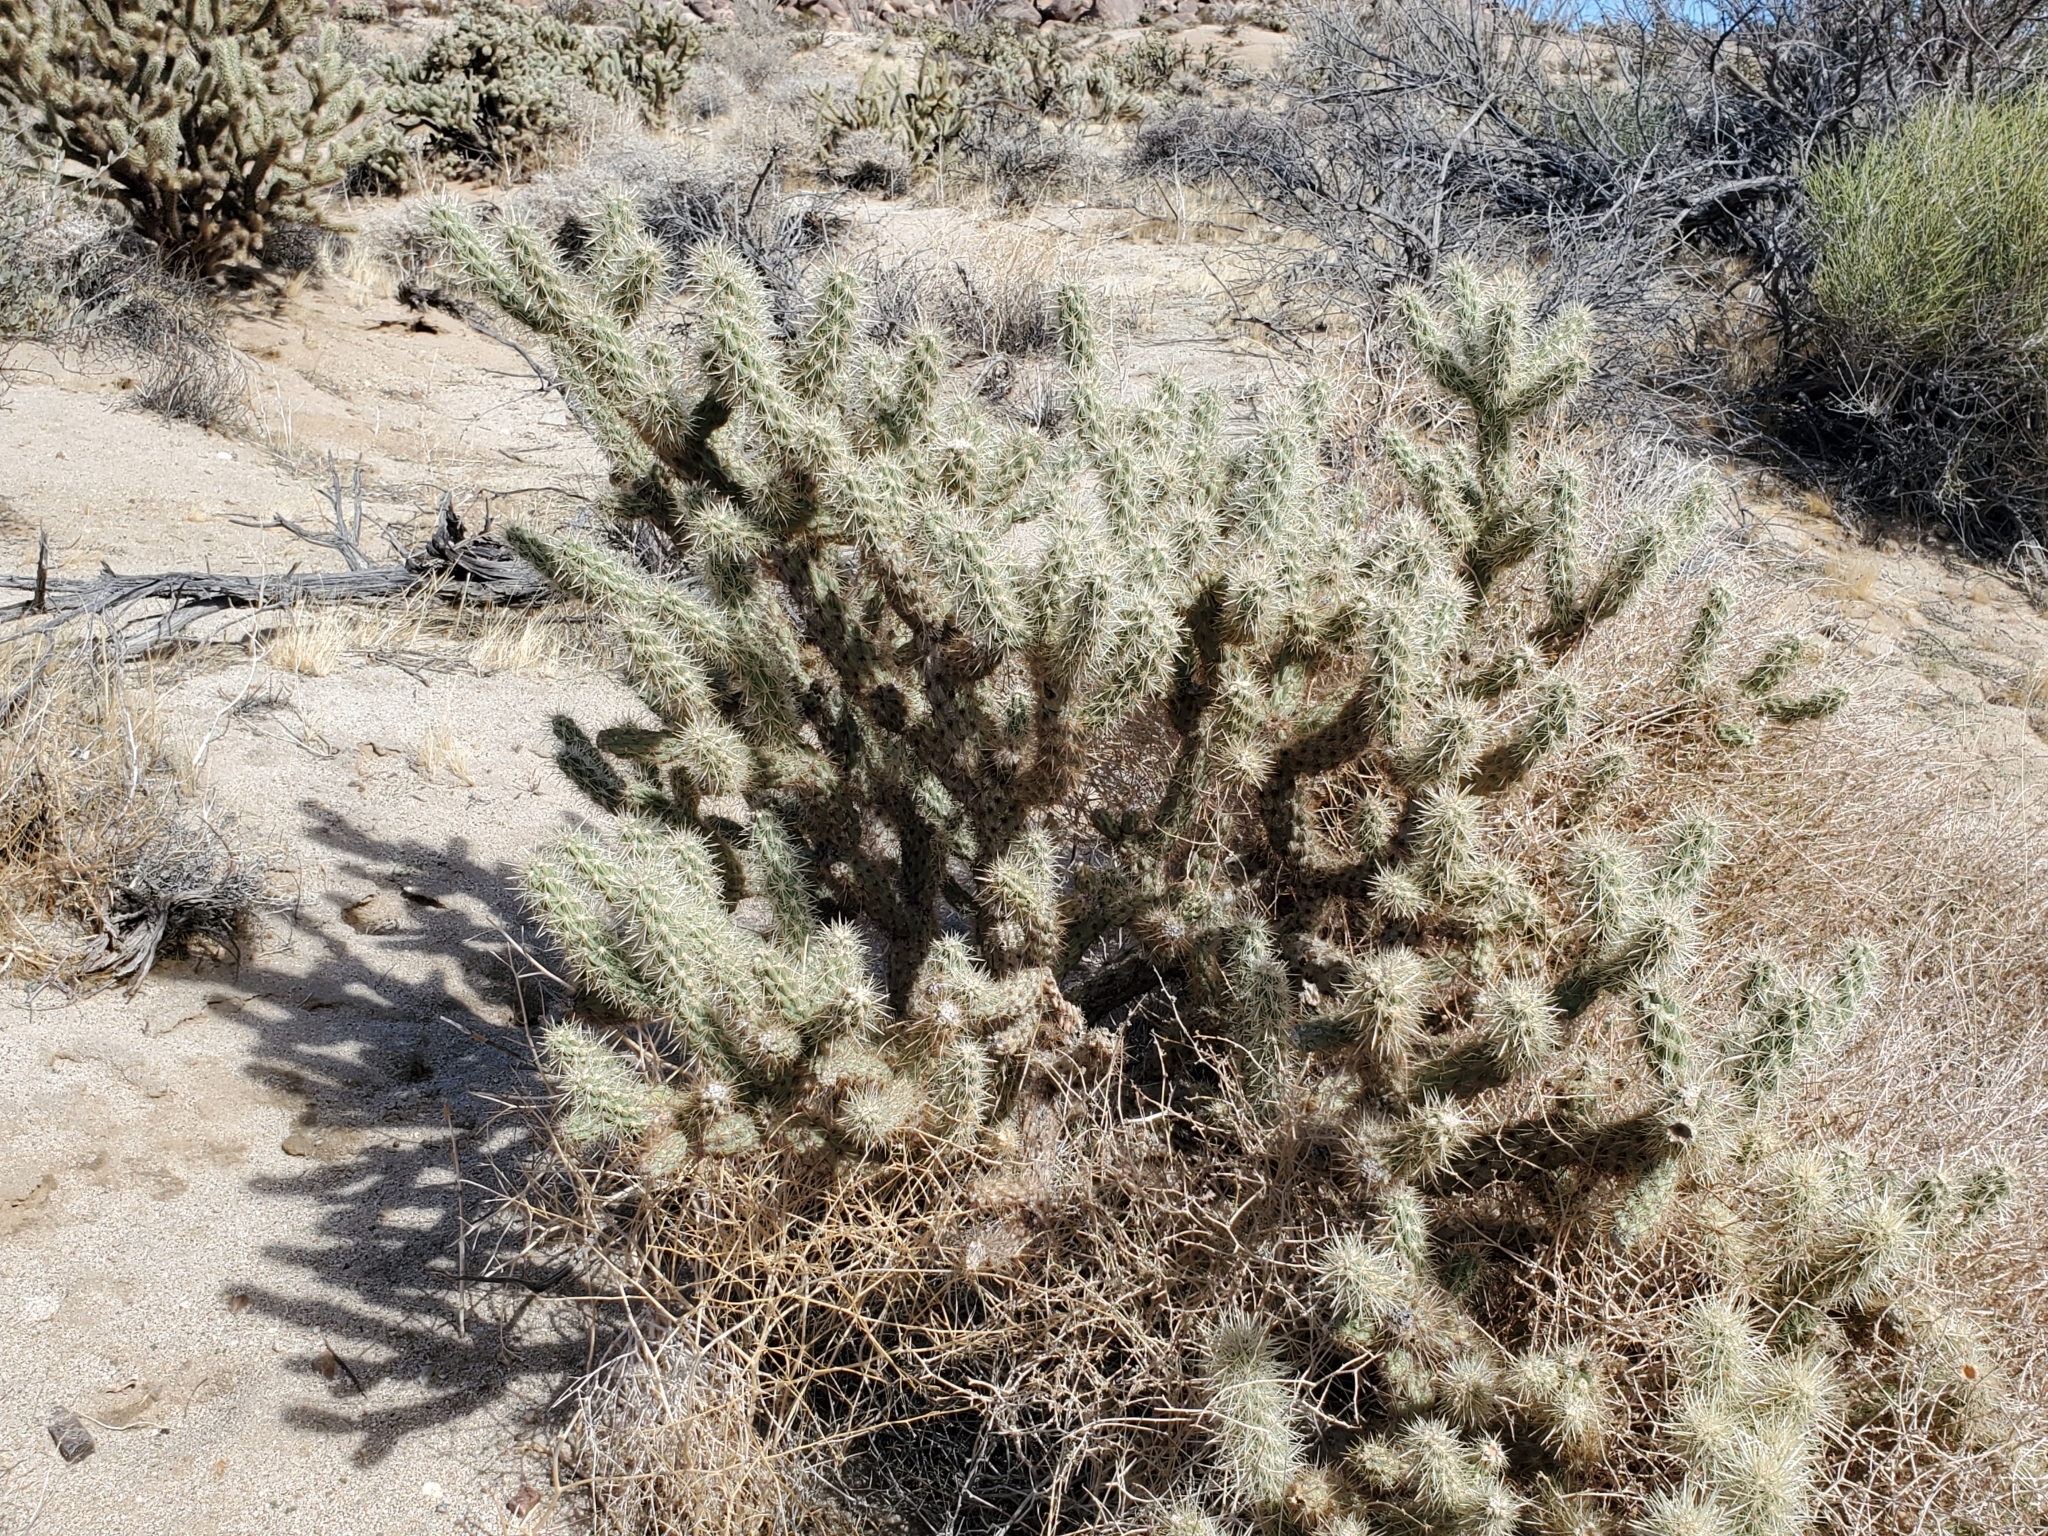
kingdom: Plantae
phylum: Tracheophyta
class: Magnoliopsida
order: Caryophyllales
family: Cactaceae
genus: Cylindropuntia
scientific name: Cylindropuntia echinocarpa
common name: Ground cholla
